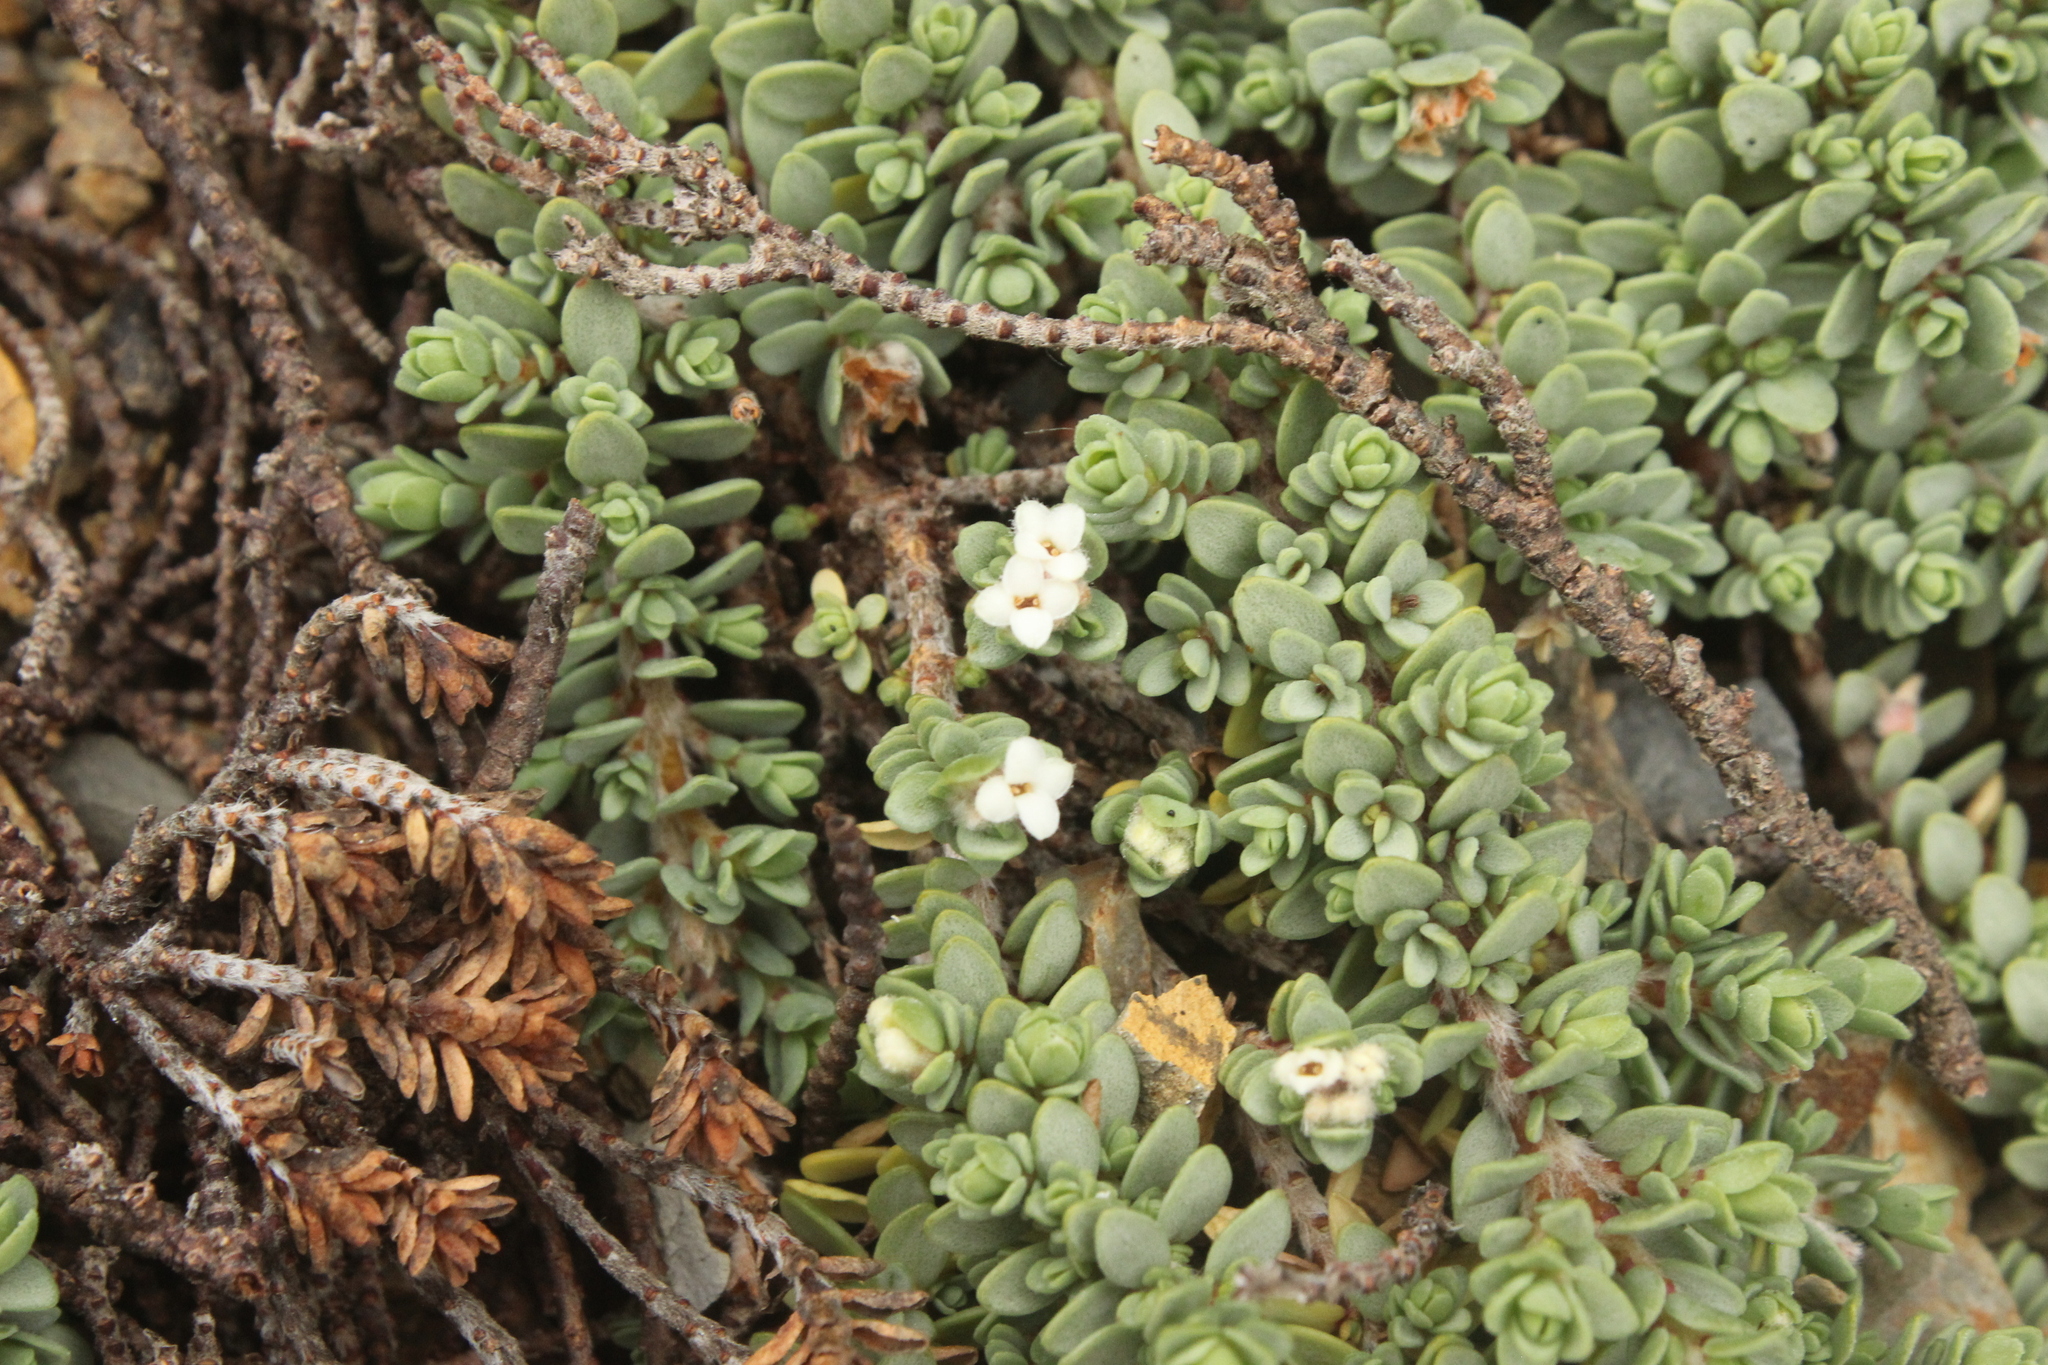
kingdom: Plantae
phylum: Tracheophyta
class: Magnoliopsida
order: Malvales
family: Thymelaeaceae
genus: Pimelea
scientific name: Pimelea carnosa
